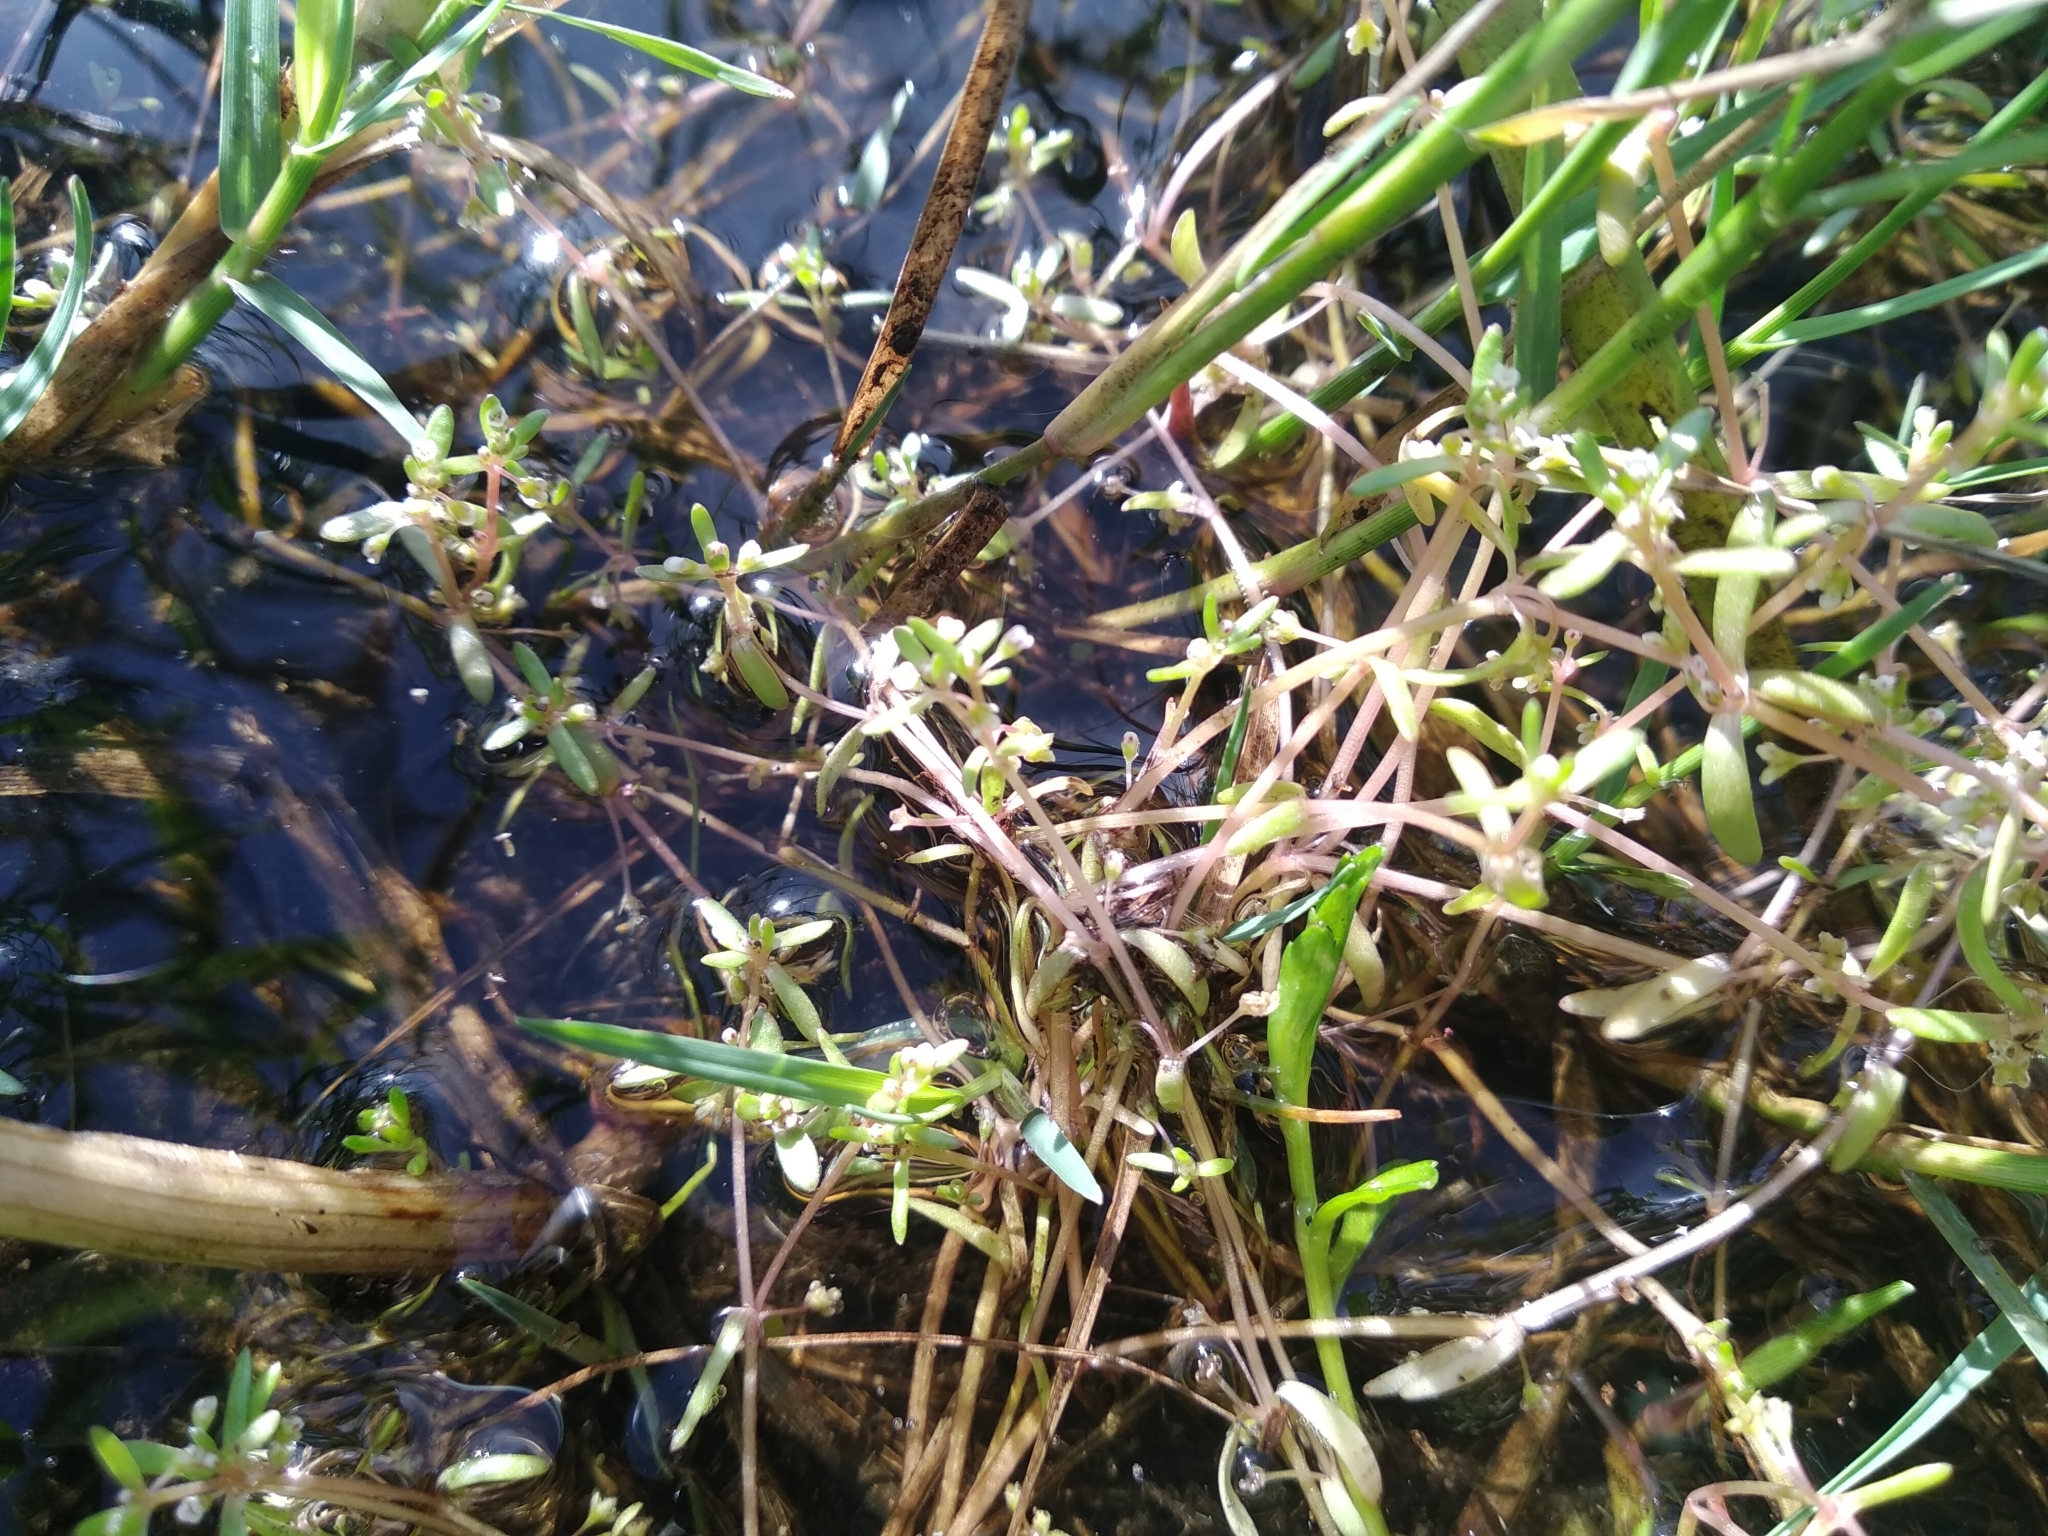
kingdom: Plantae
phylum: Tracheophyta
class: Magnoliopsida
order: Saxifragales
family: Crassulaceae
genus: Crassula
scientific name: Crassula natans
